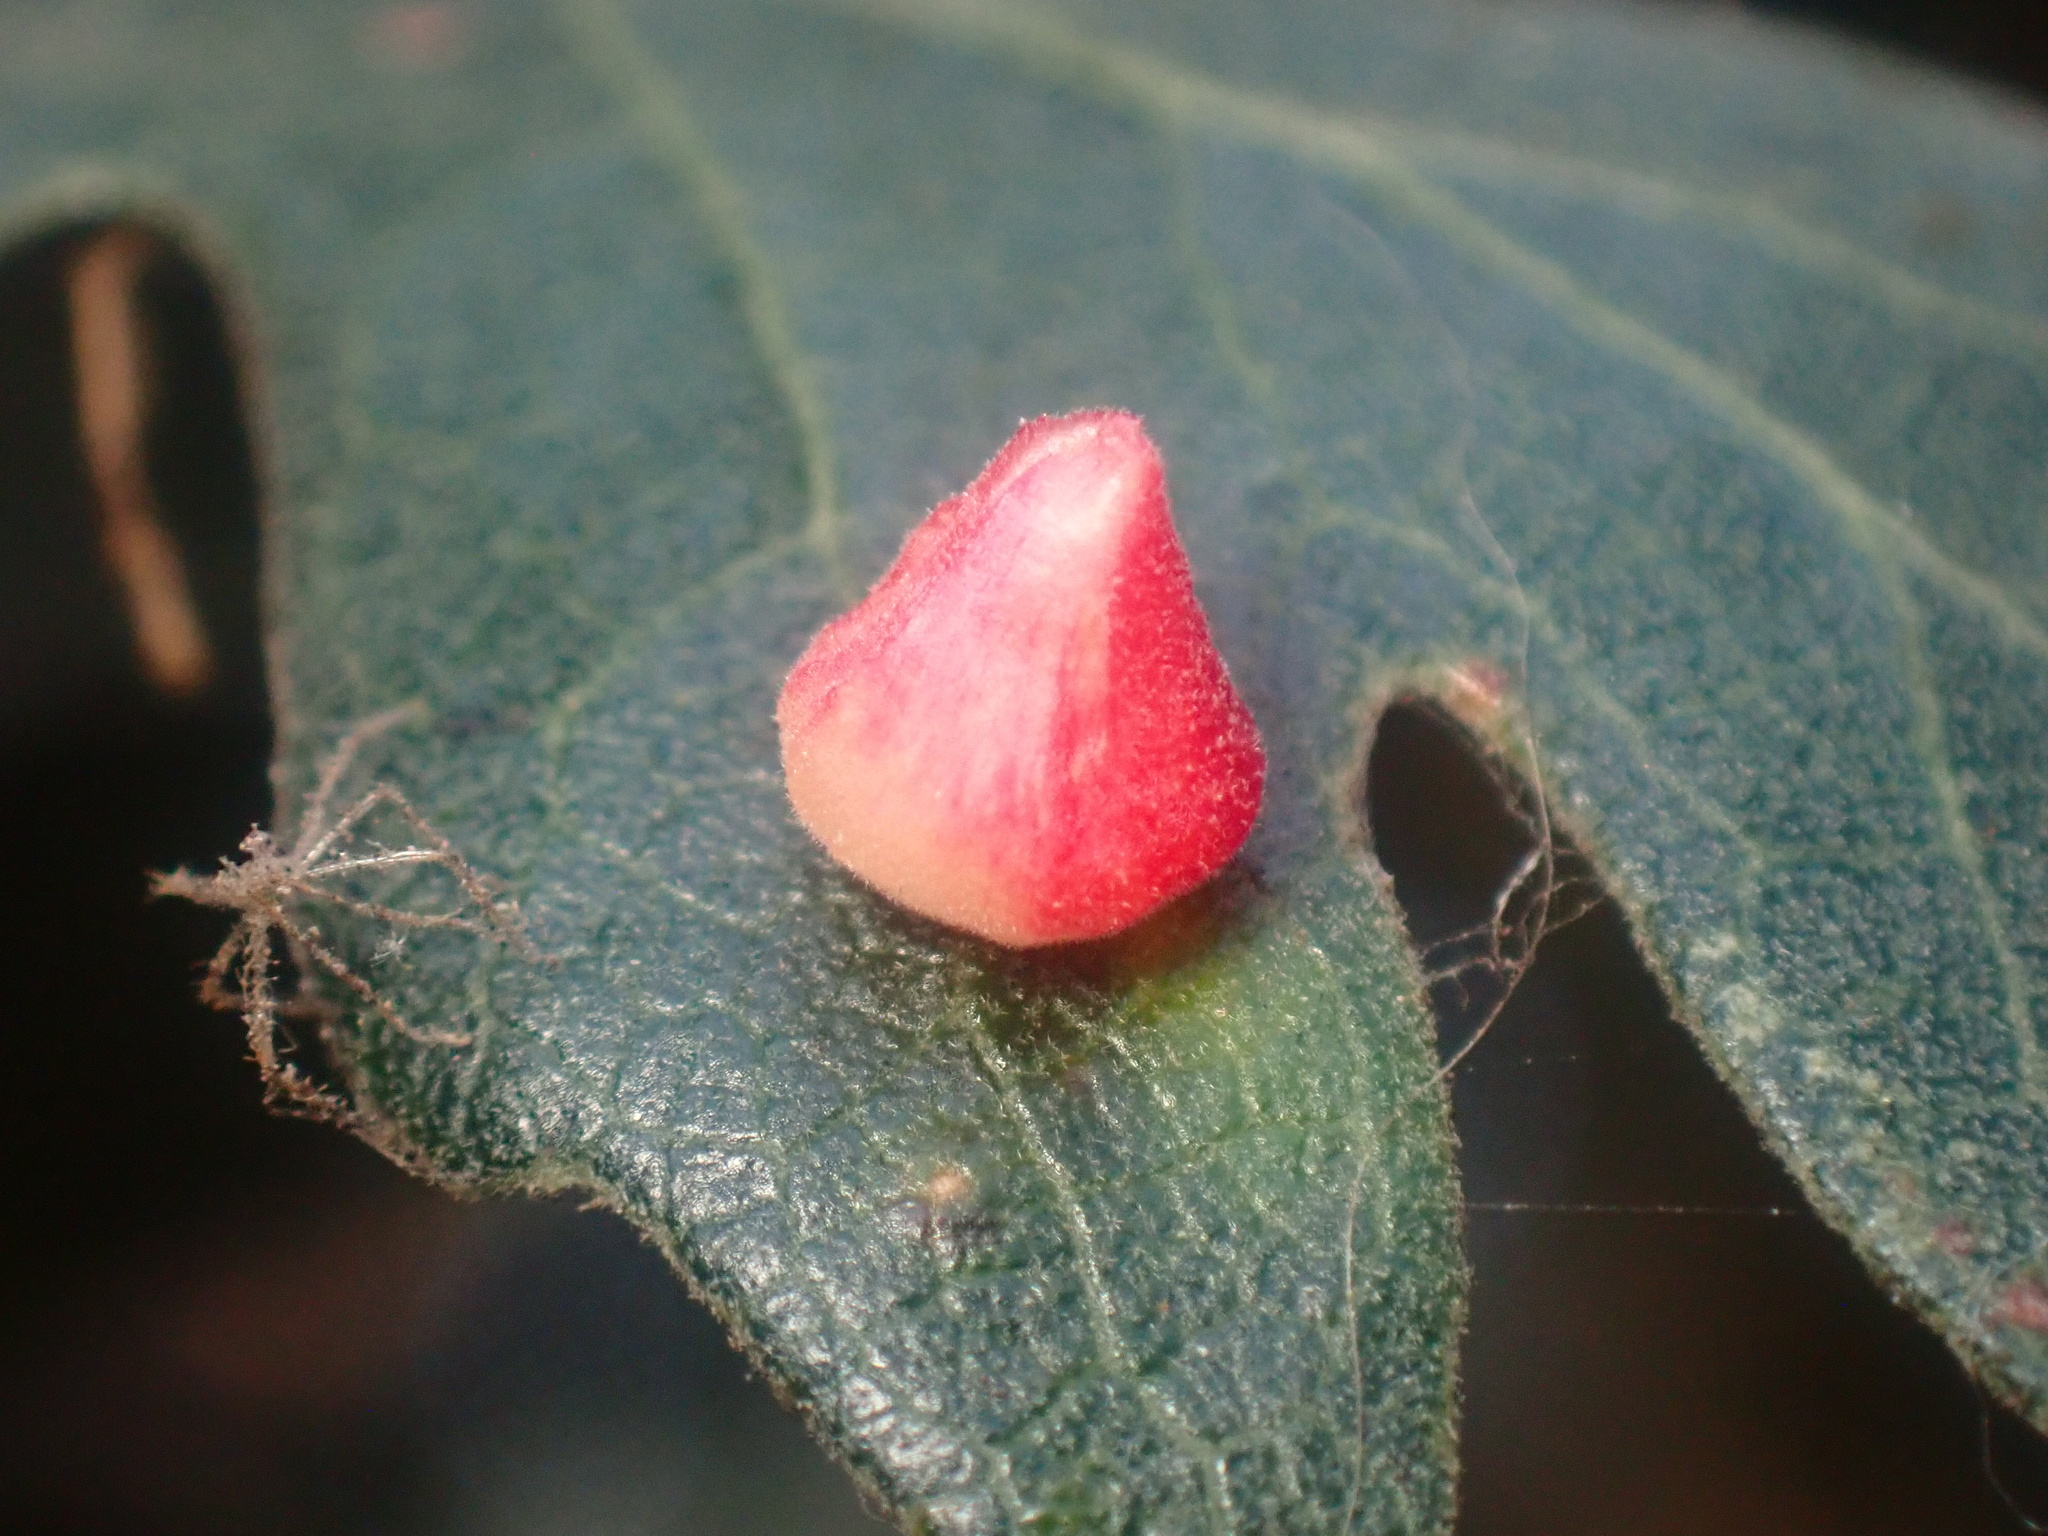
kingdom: Animalia
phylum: Arthropoda
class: Insecta
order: Hymenoptera
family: Cynipidae
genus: Andricus
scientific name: Andricus
